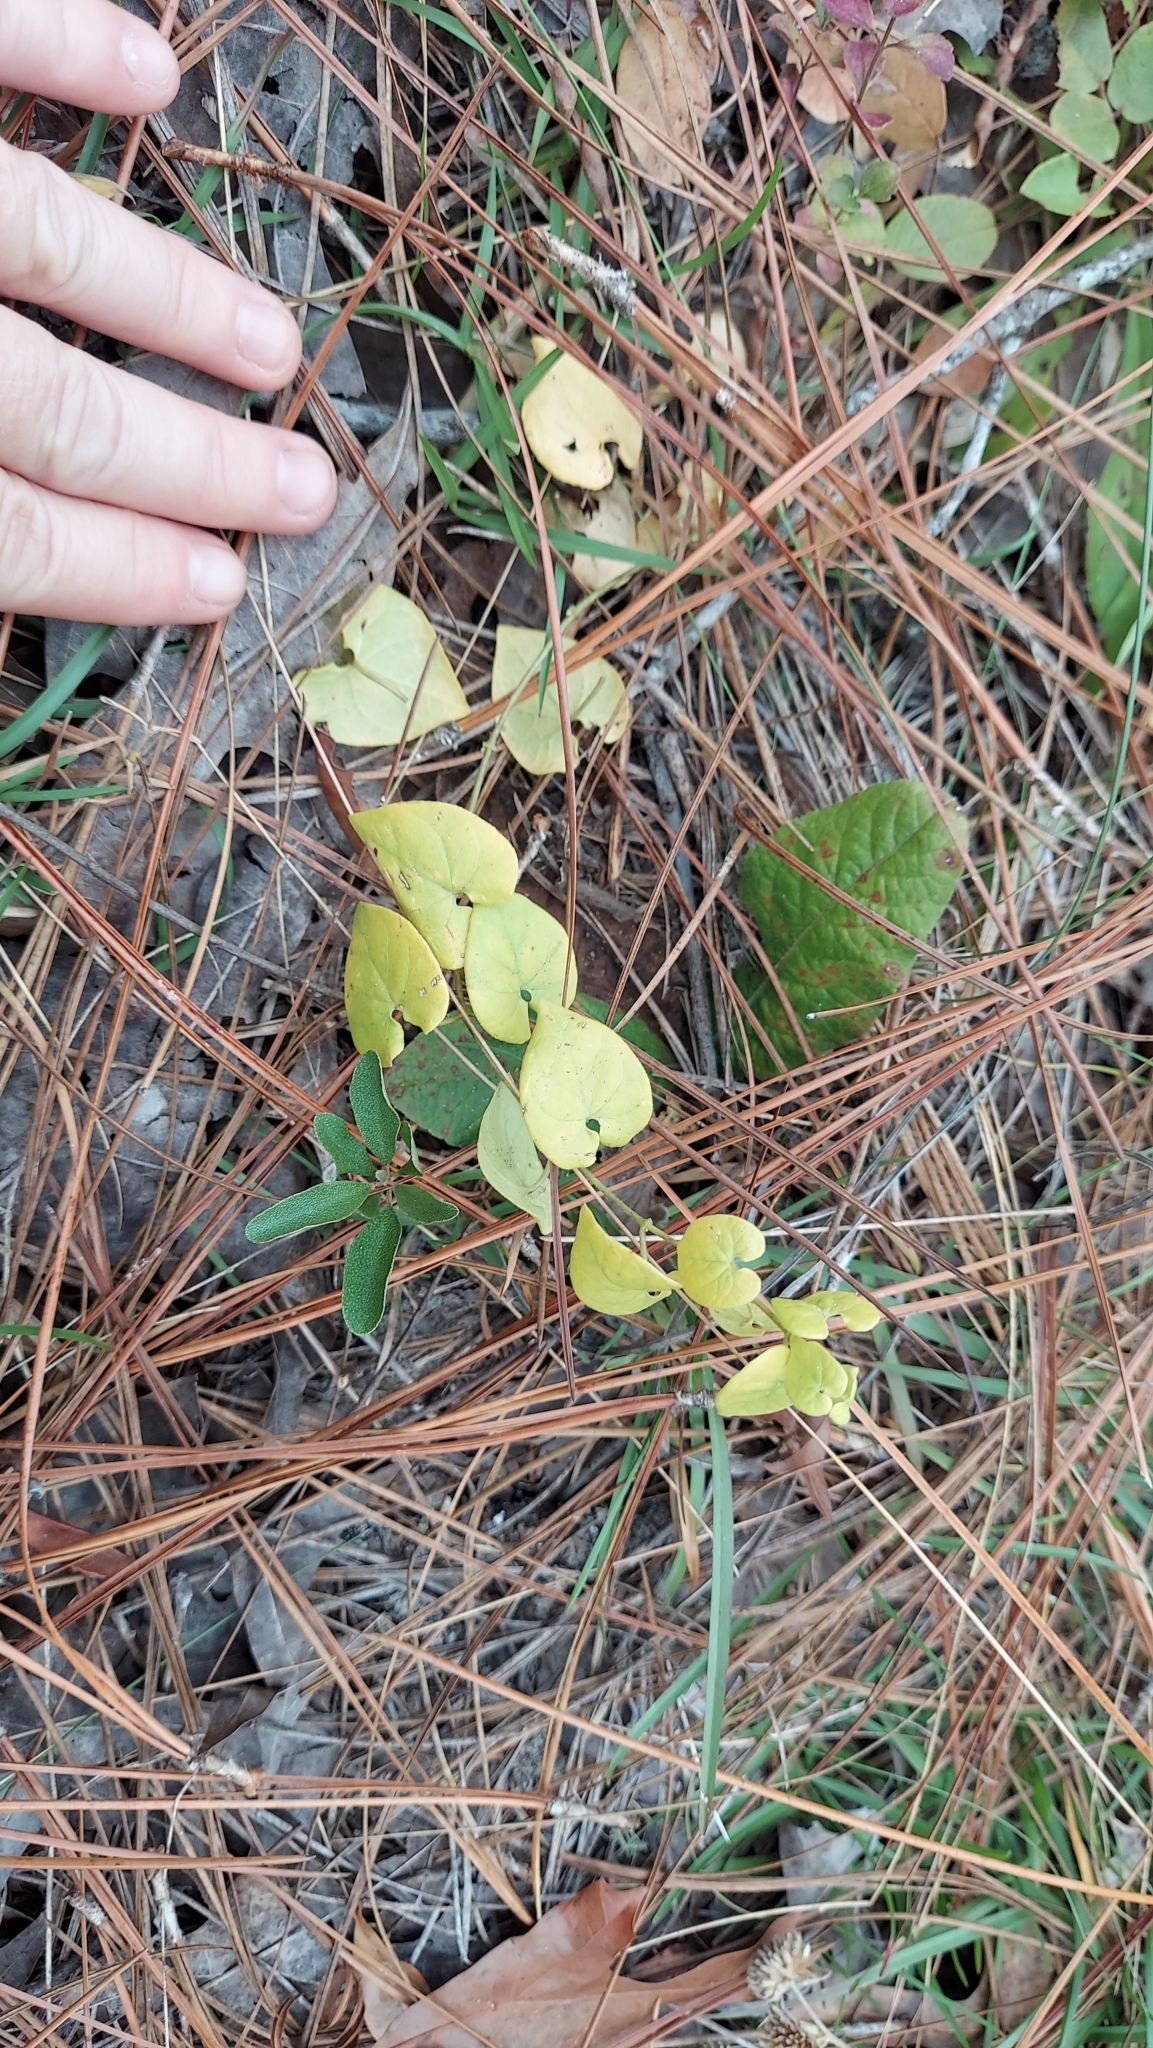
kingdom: Plantae
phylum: Tracheophyta
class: Magnoliopsida
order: Gentianales
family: Apocynaceae
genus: Chthamalia
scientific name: Chthamalia pubiflora
